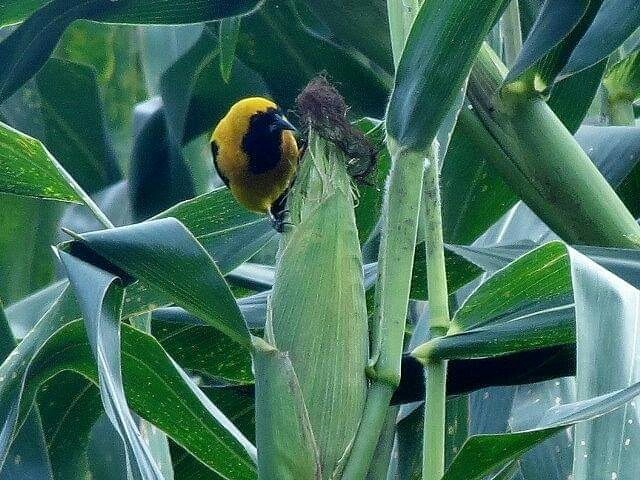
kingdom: Animalia
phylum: Chordata
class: Aves
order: Passeriformes
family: Icteridae
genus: Icterus
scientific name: Icterus chrysater
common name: Yellow-backed oriole
